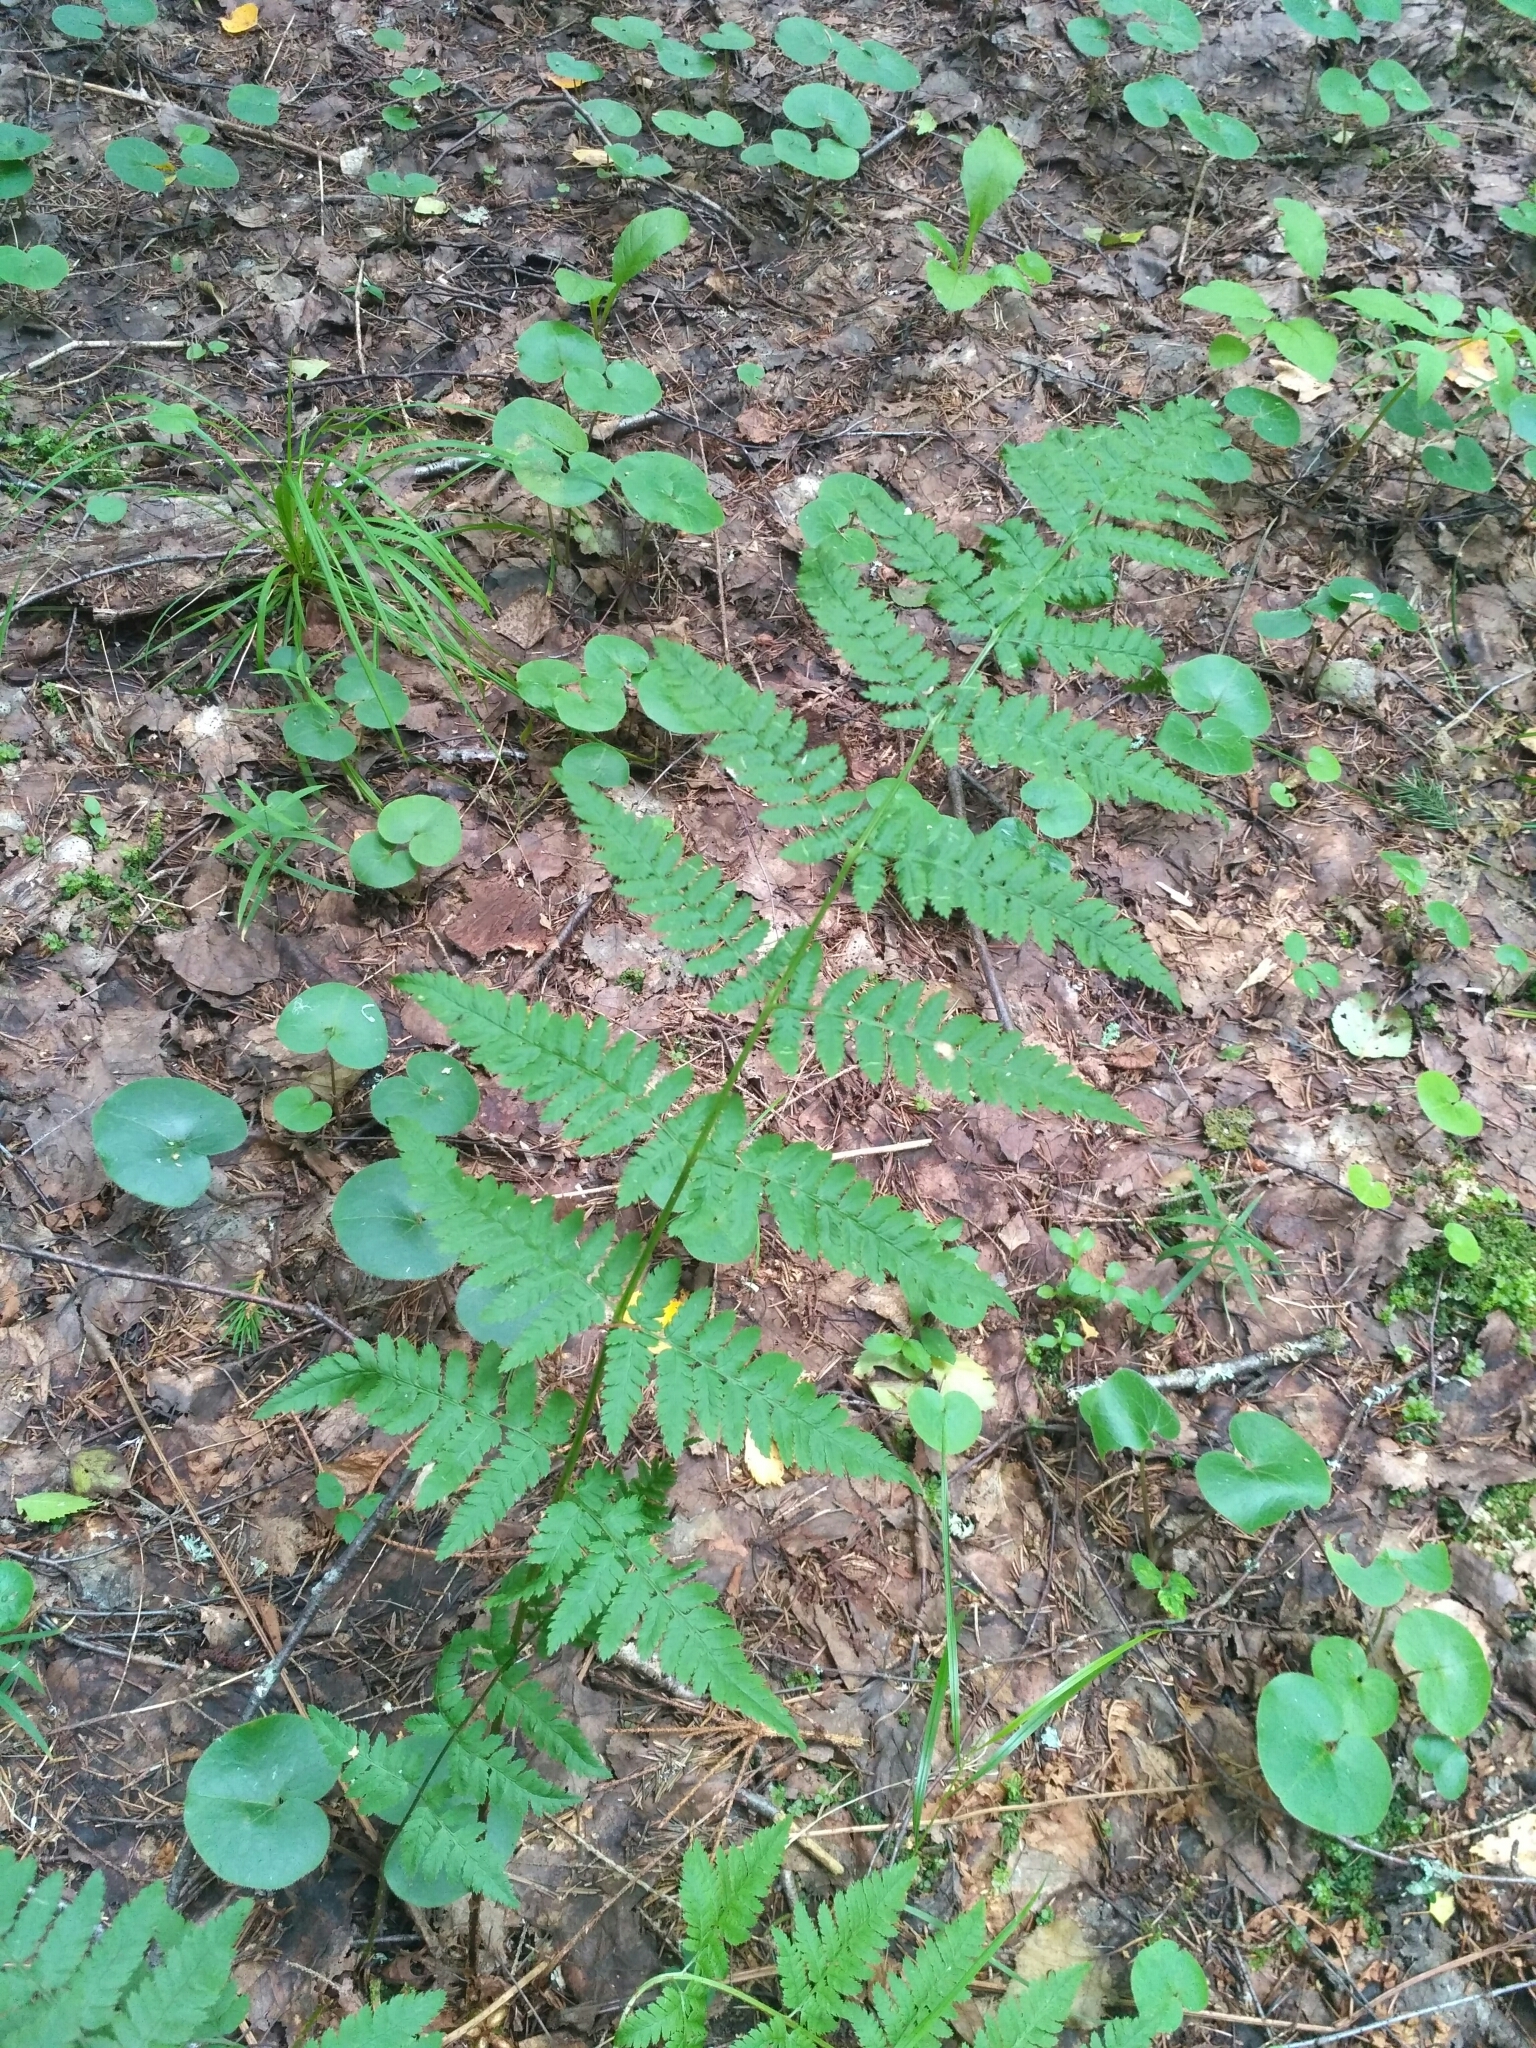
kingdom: Plantae
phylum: Tracheophyta
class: Polypodiopsida
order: Polypodiales
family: Dryopteridaceae
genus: Dryopteris
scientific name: Dryopteris carthusiana
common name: Narrow buckler-fern
